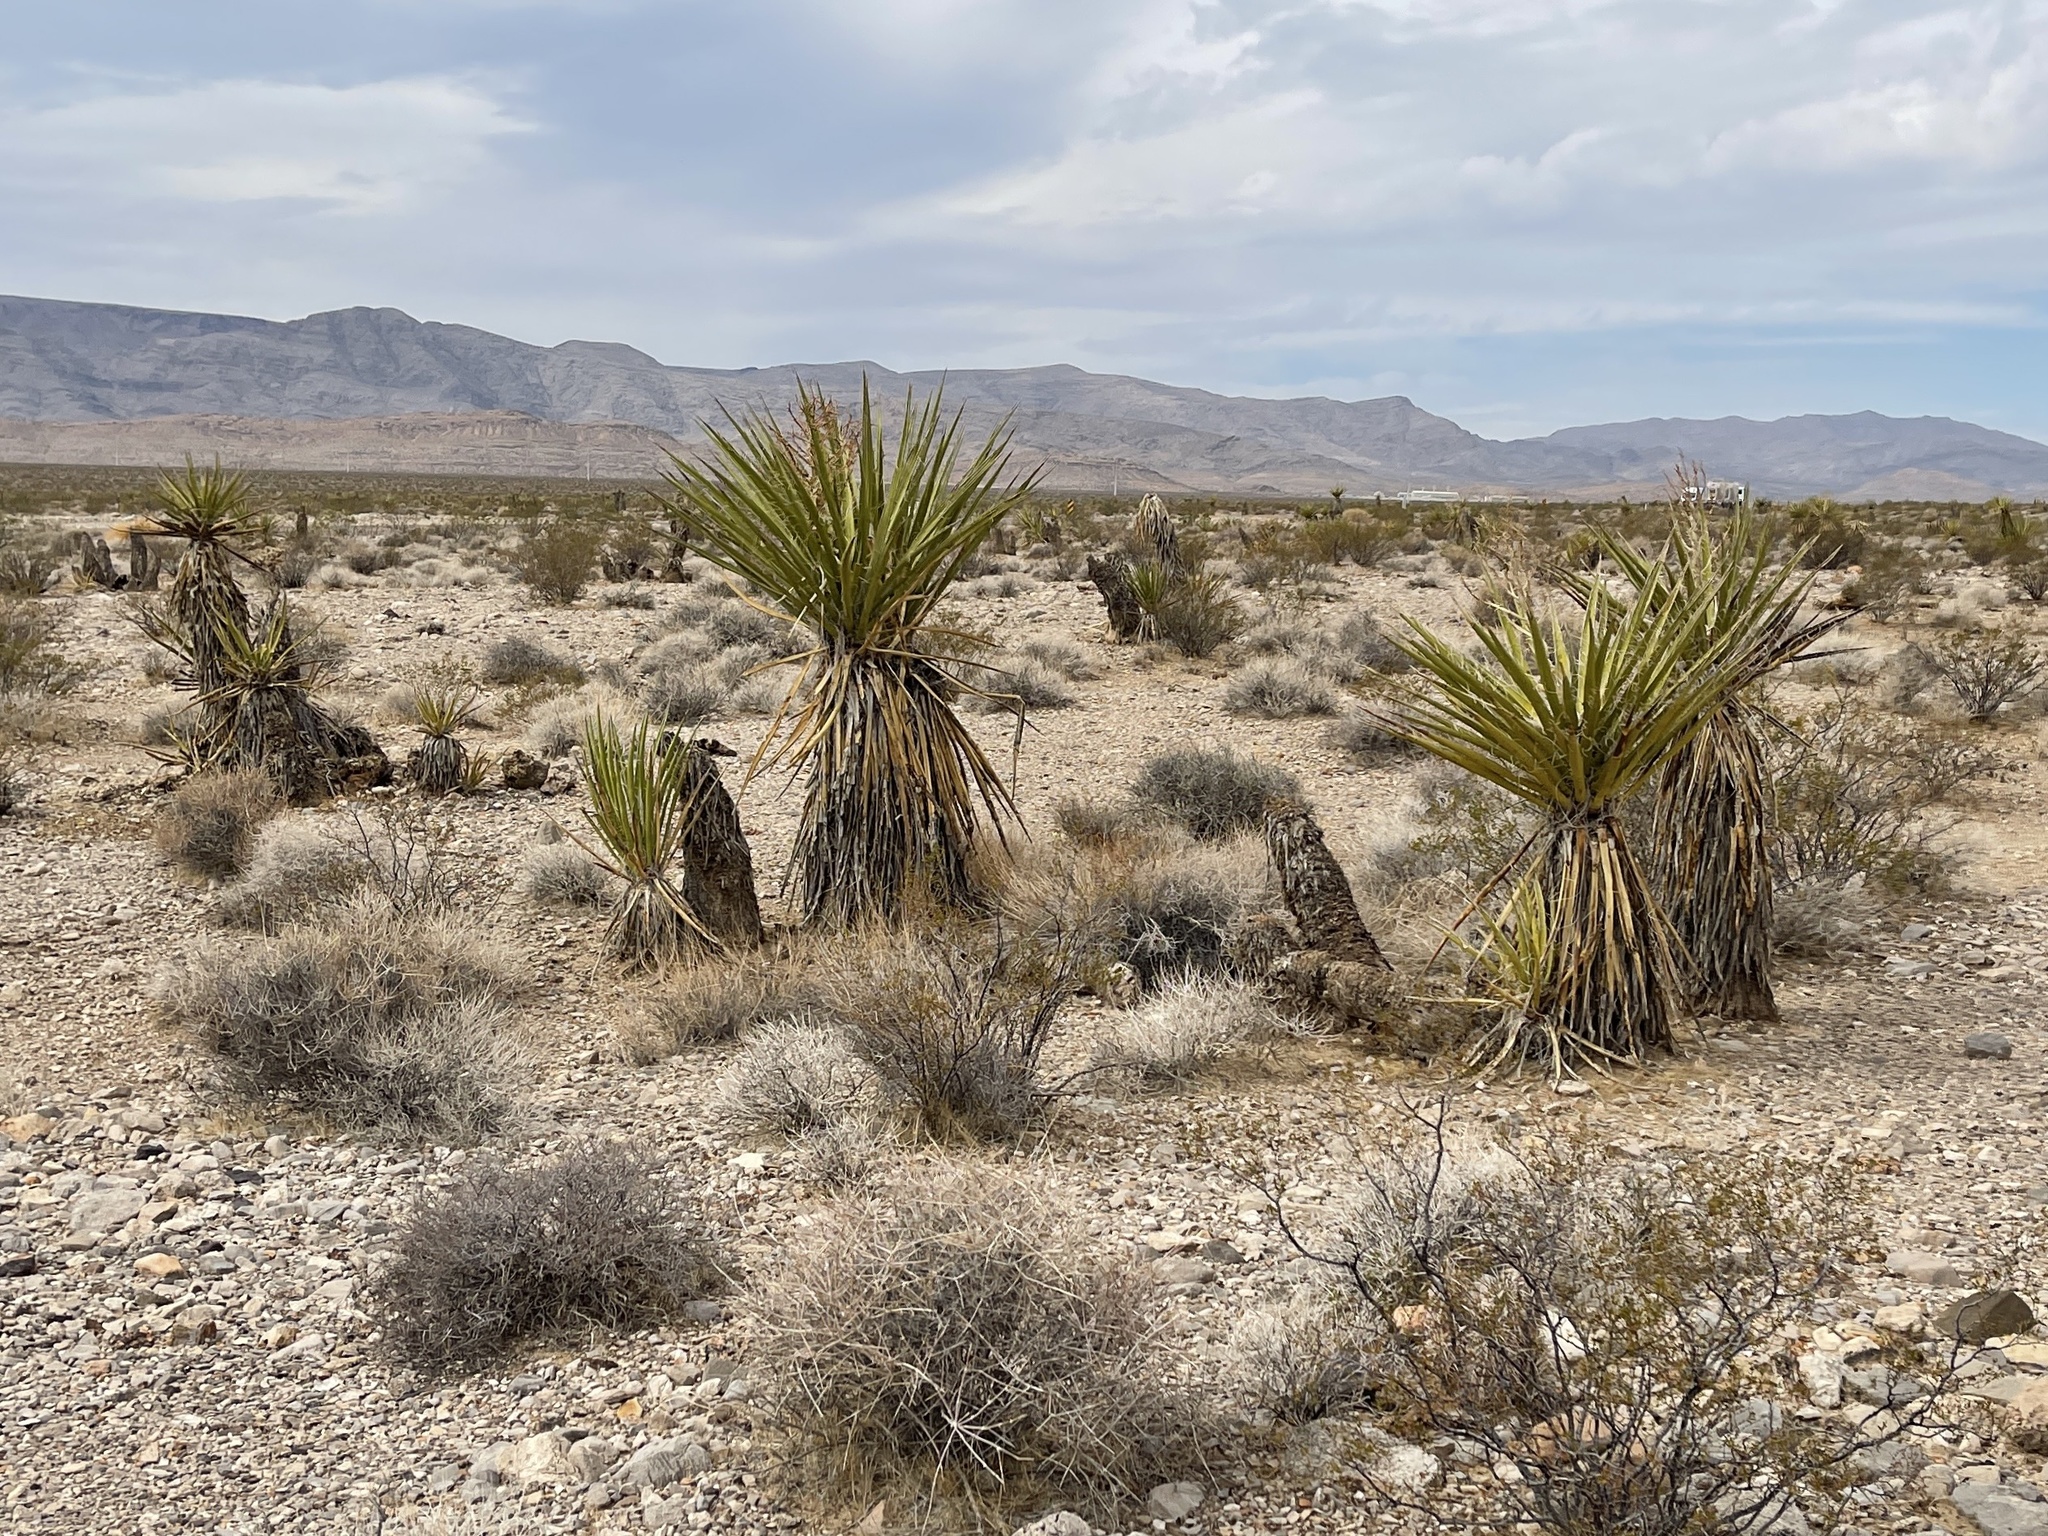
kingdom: Plantae
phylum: Tracheophyta
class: Liliopsida
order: Asparagales
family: Asparagaceae
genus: Yucca
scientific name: Yucca schidigera
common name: Mojave yucca
